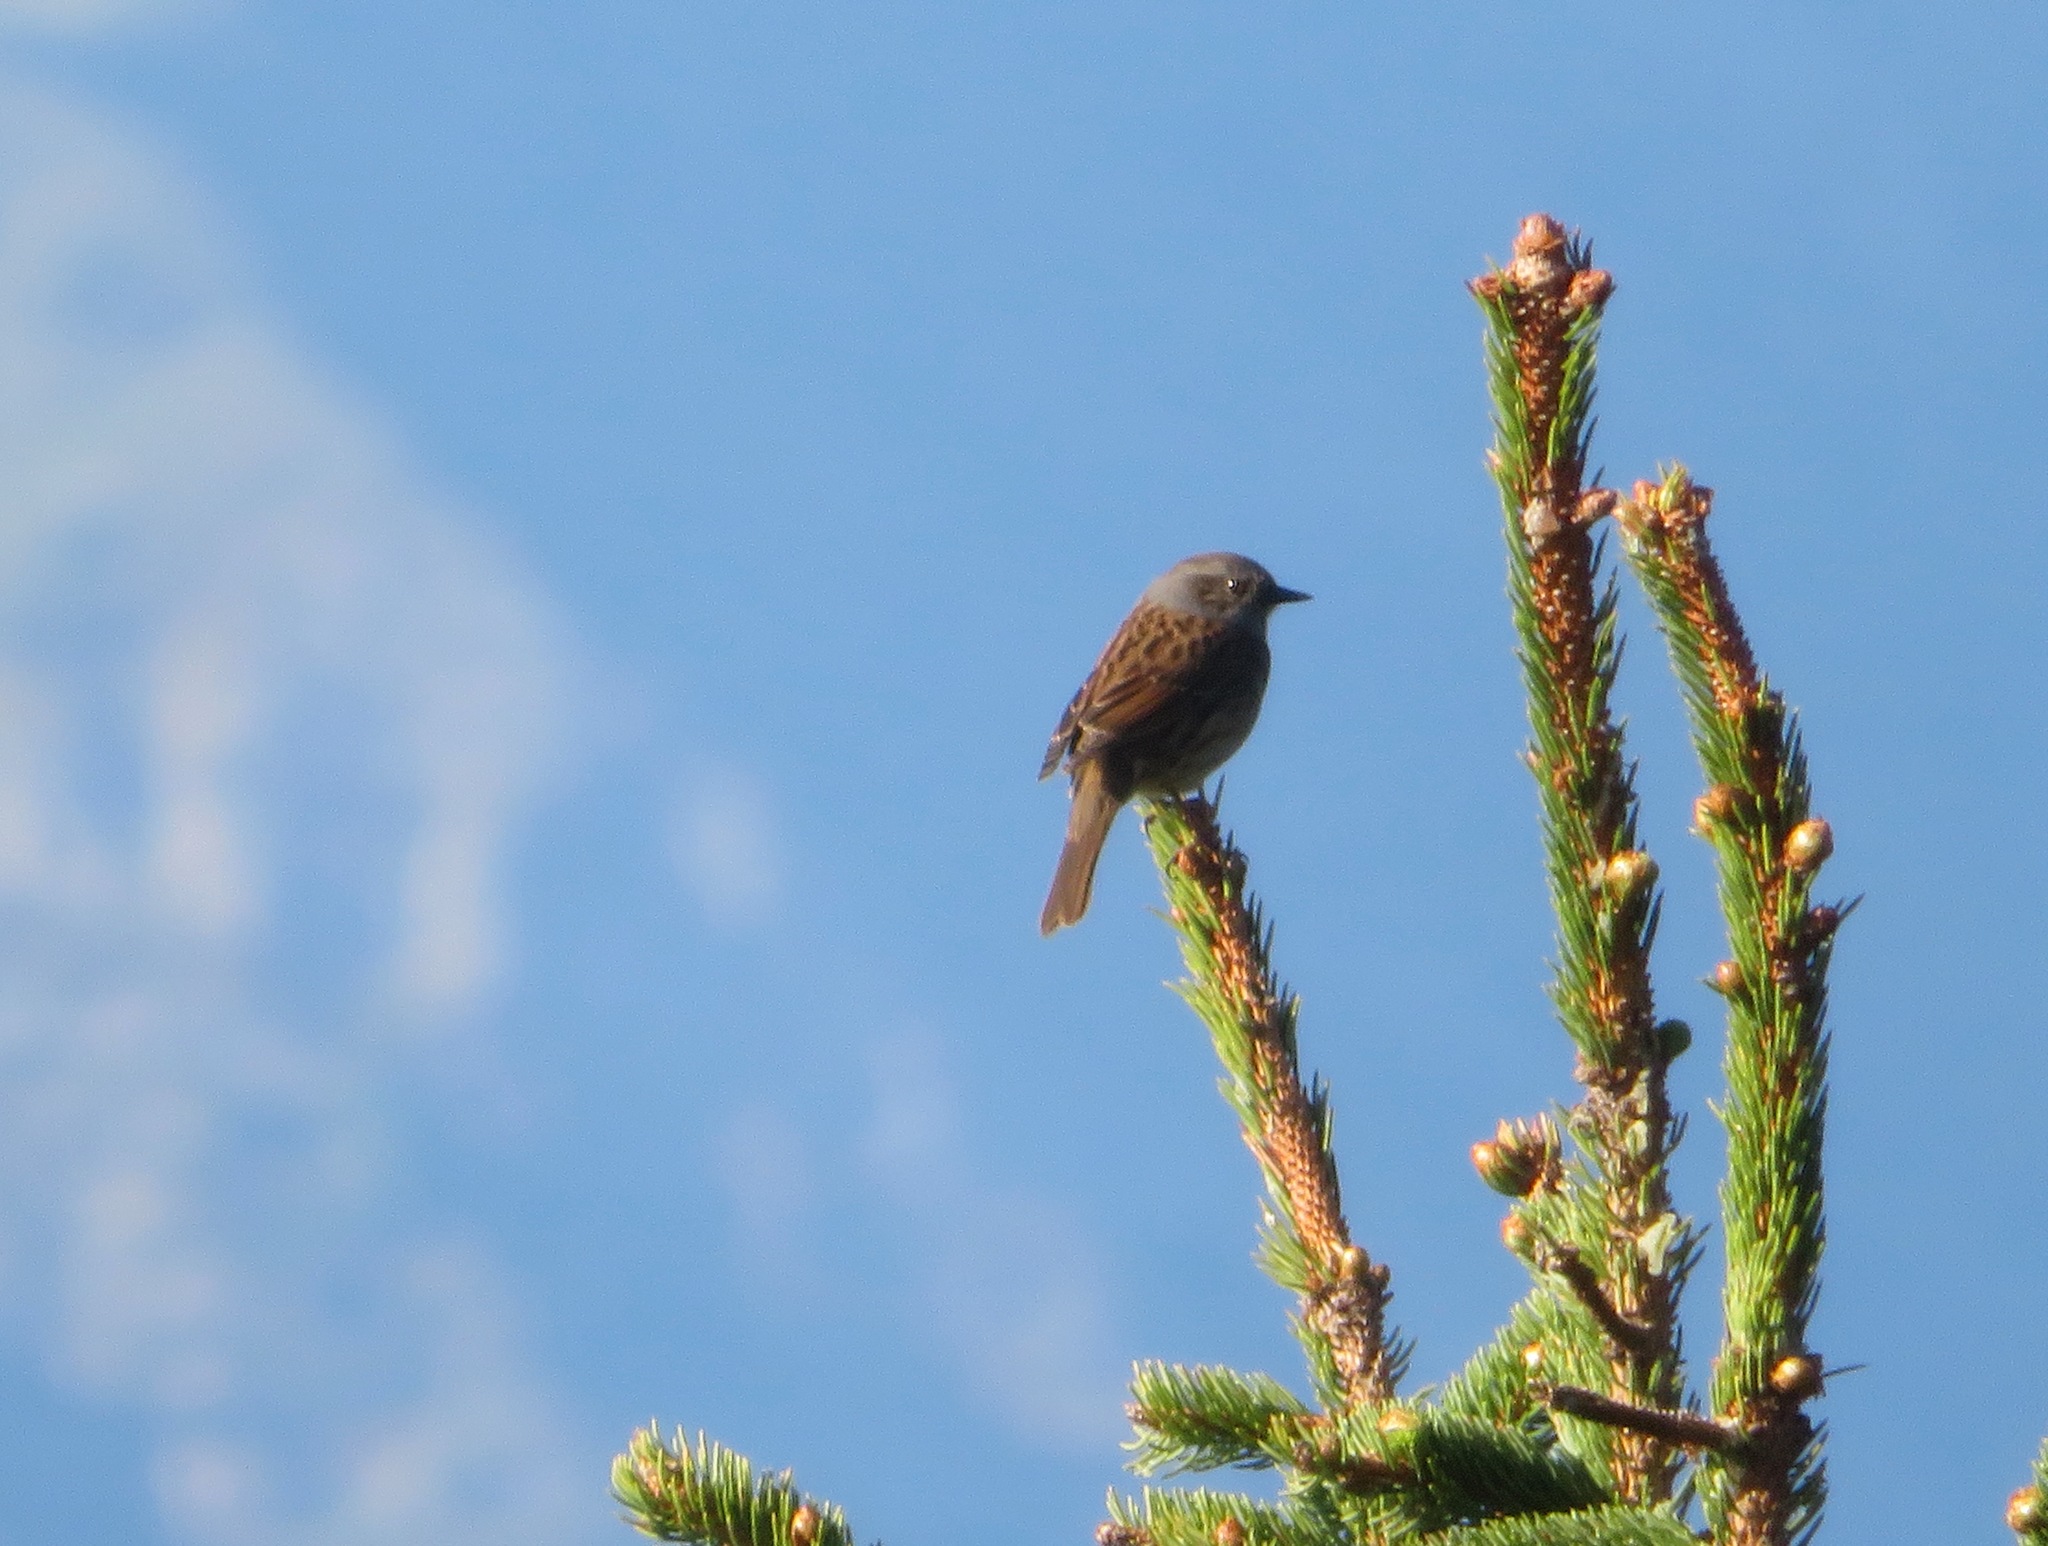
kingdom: Animalia
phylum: Chordata
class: Aves
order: Passeriformes
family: Prunellidae
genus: Prunella
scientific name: Prunella modularis
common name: Dunnock
